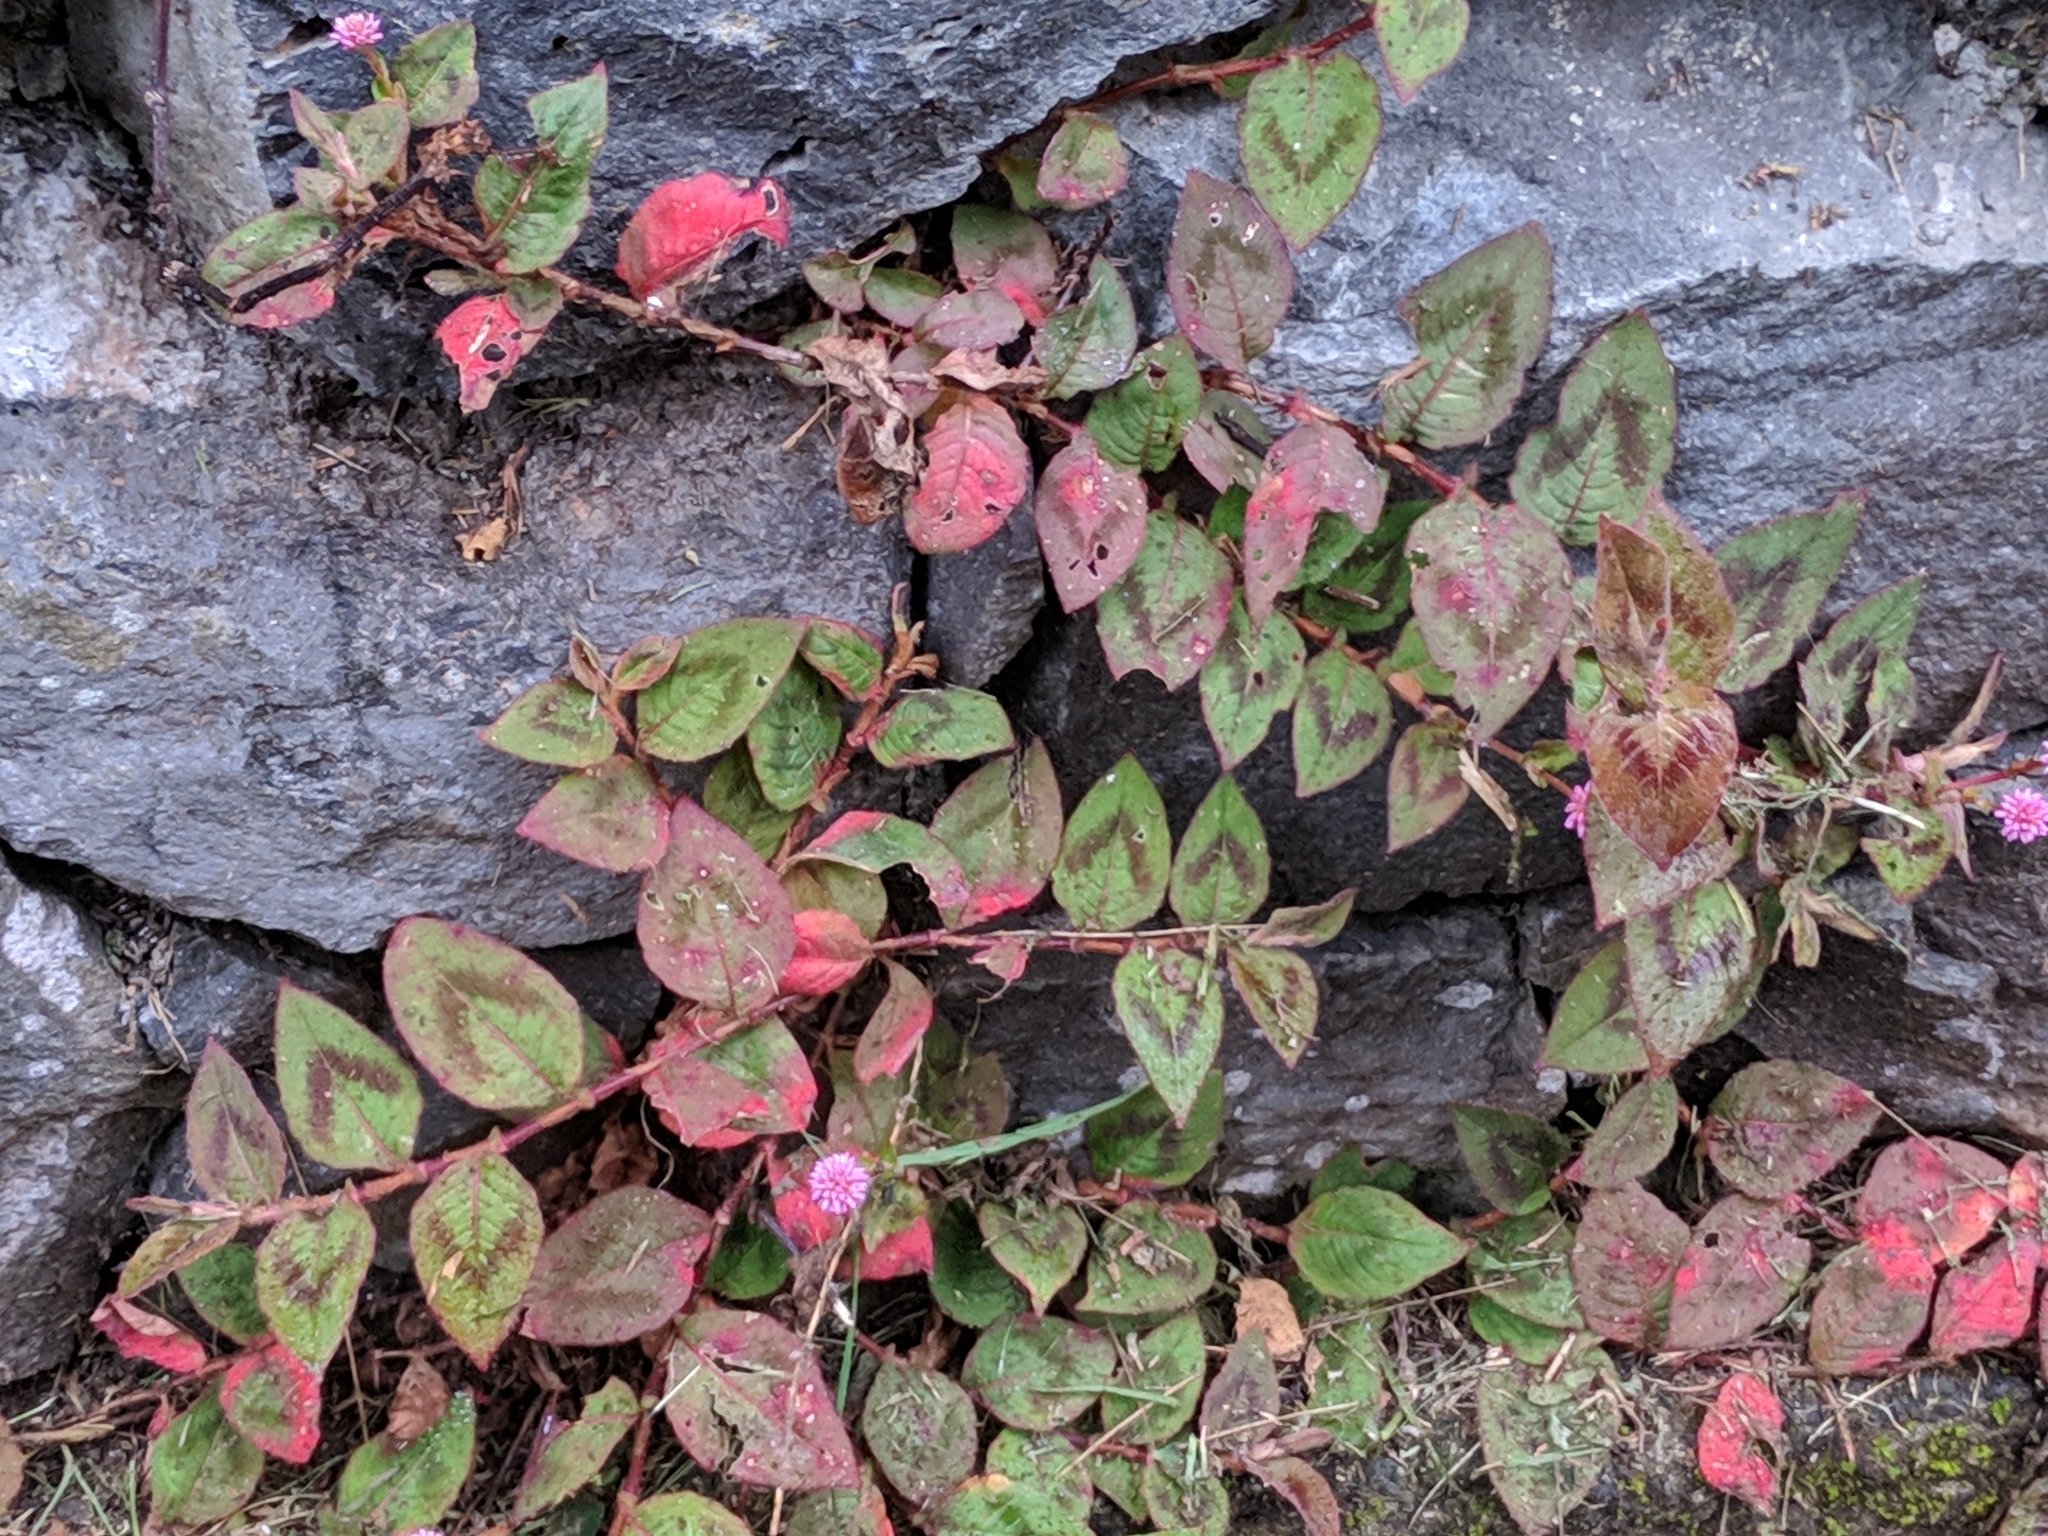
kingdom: Plantae
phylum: Tracheophyta
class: Magnoliopsida
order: Caryophyllales
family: Polygonaceae
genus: Persicaria
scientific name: Persicaria capitata
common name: Pinkhead smartweed
